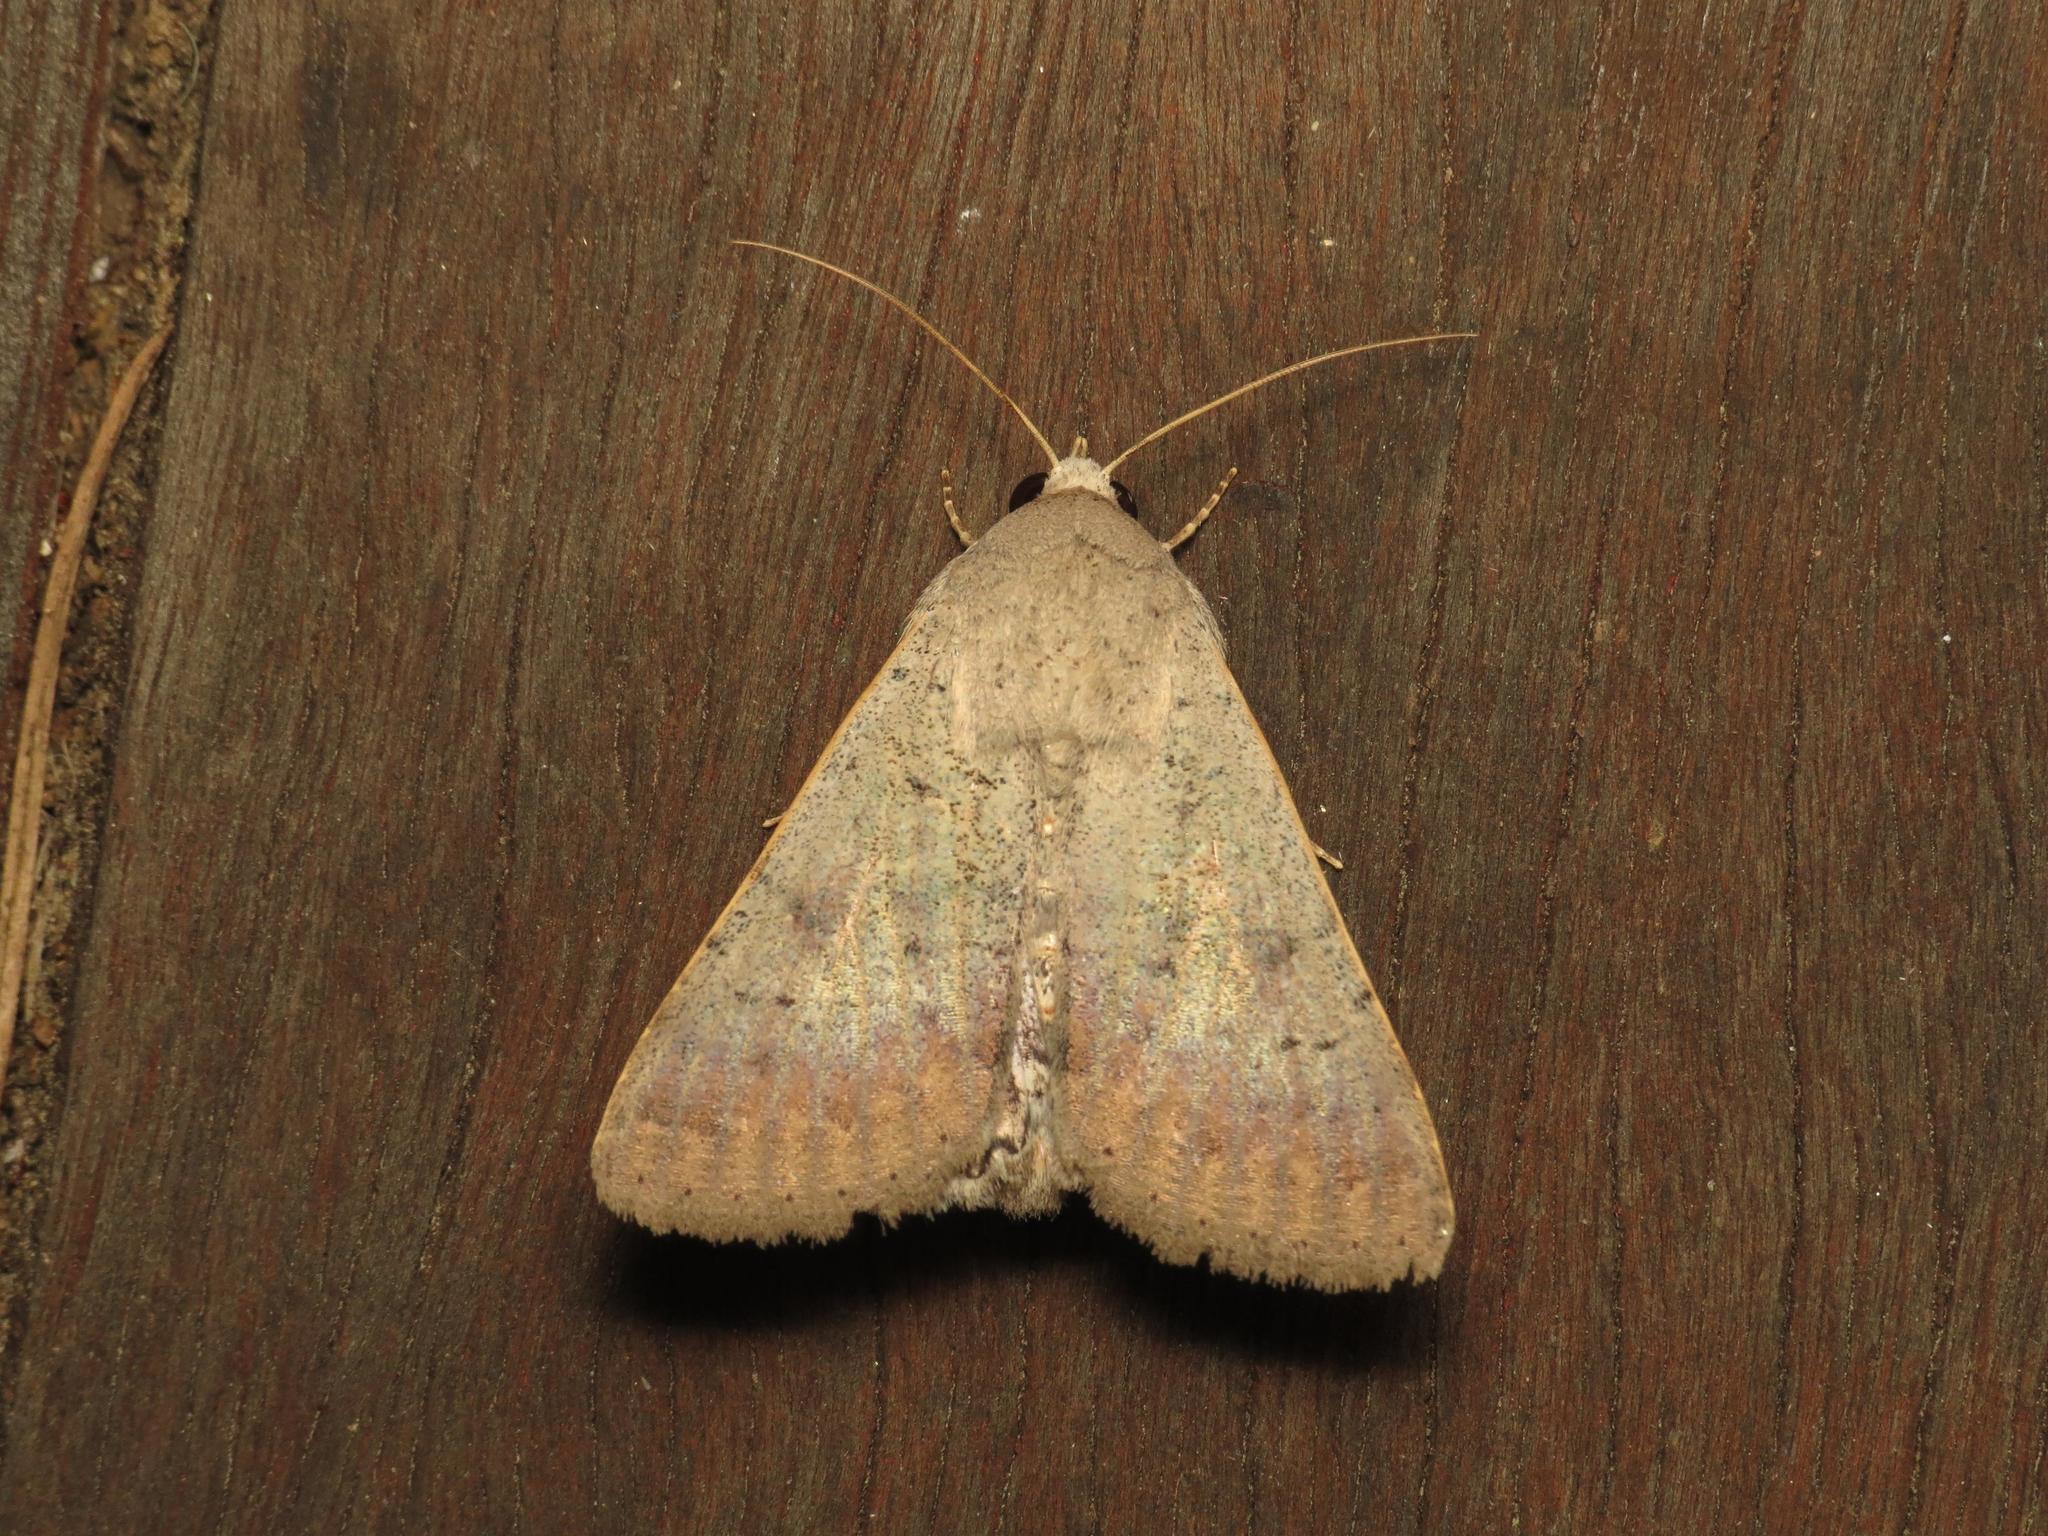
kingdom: Animalia
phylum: Arthropoda
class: Insecta
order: Lepidoptera
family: Erebidae
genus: Pandesma
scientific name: Pandesma submurina
